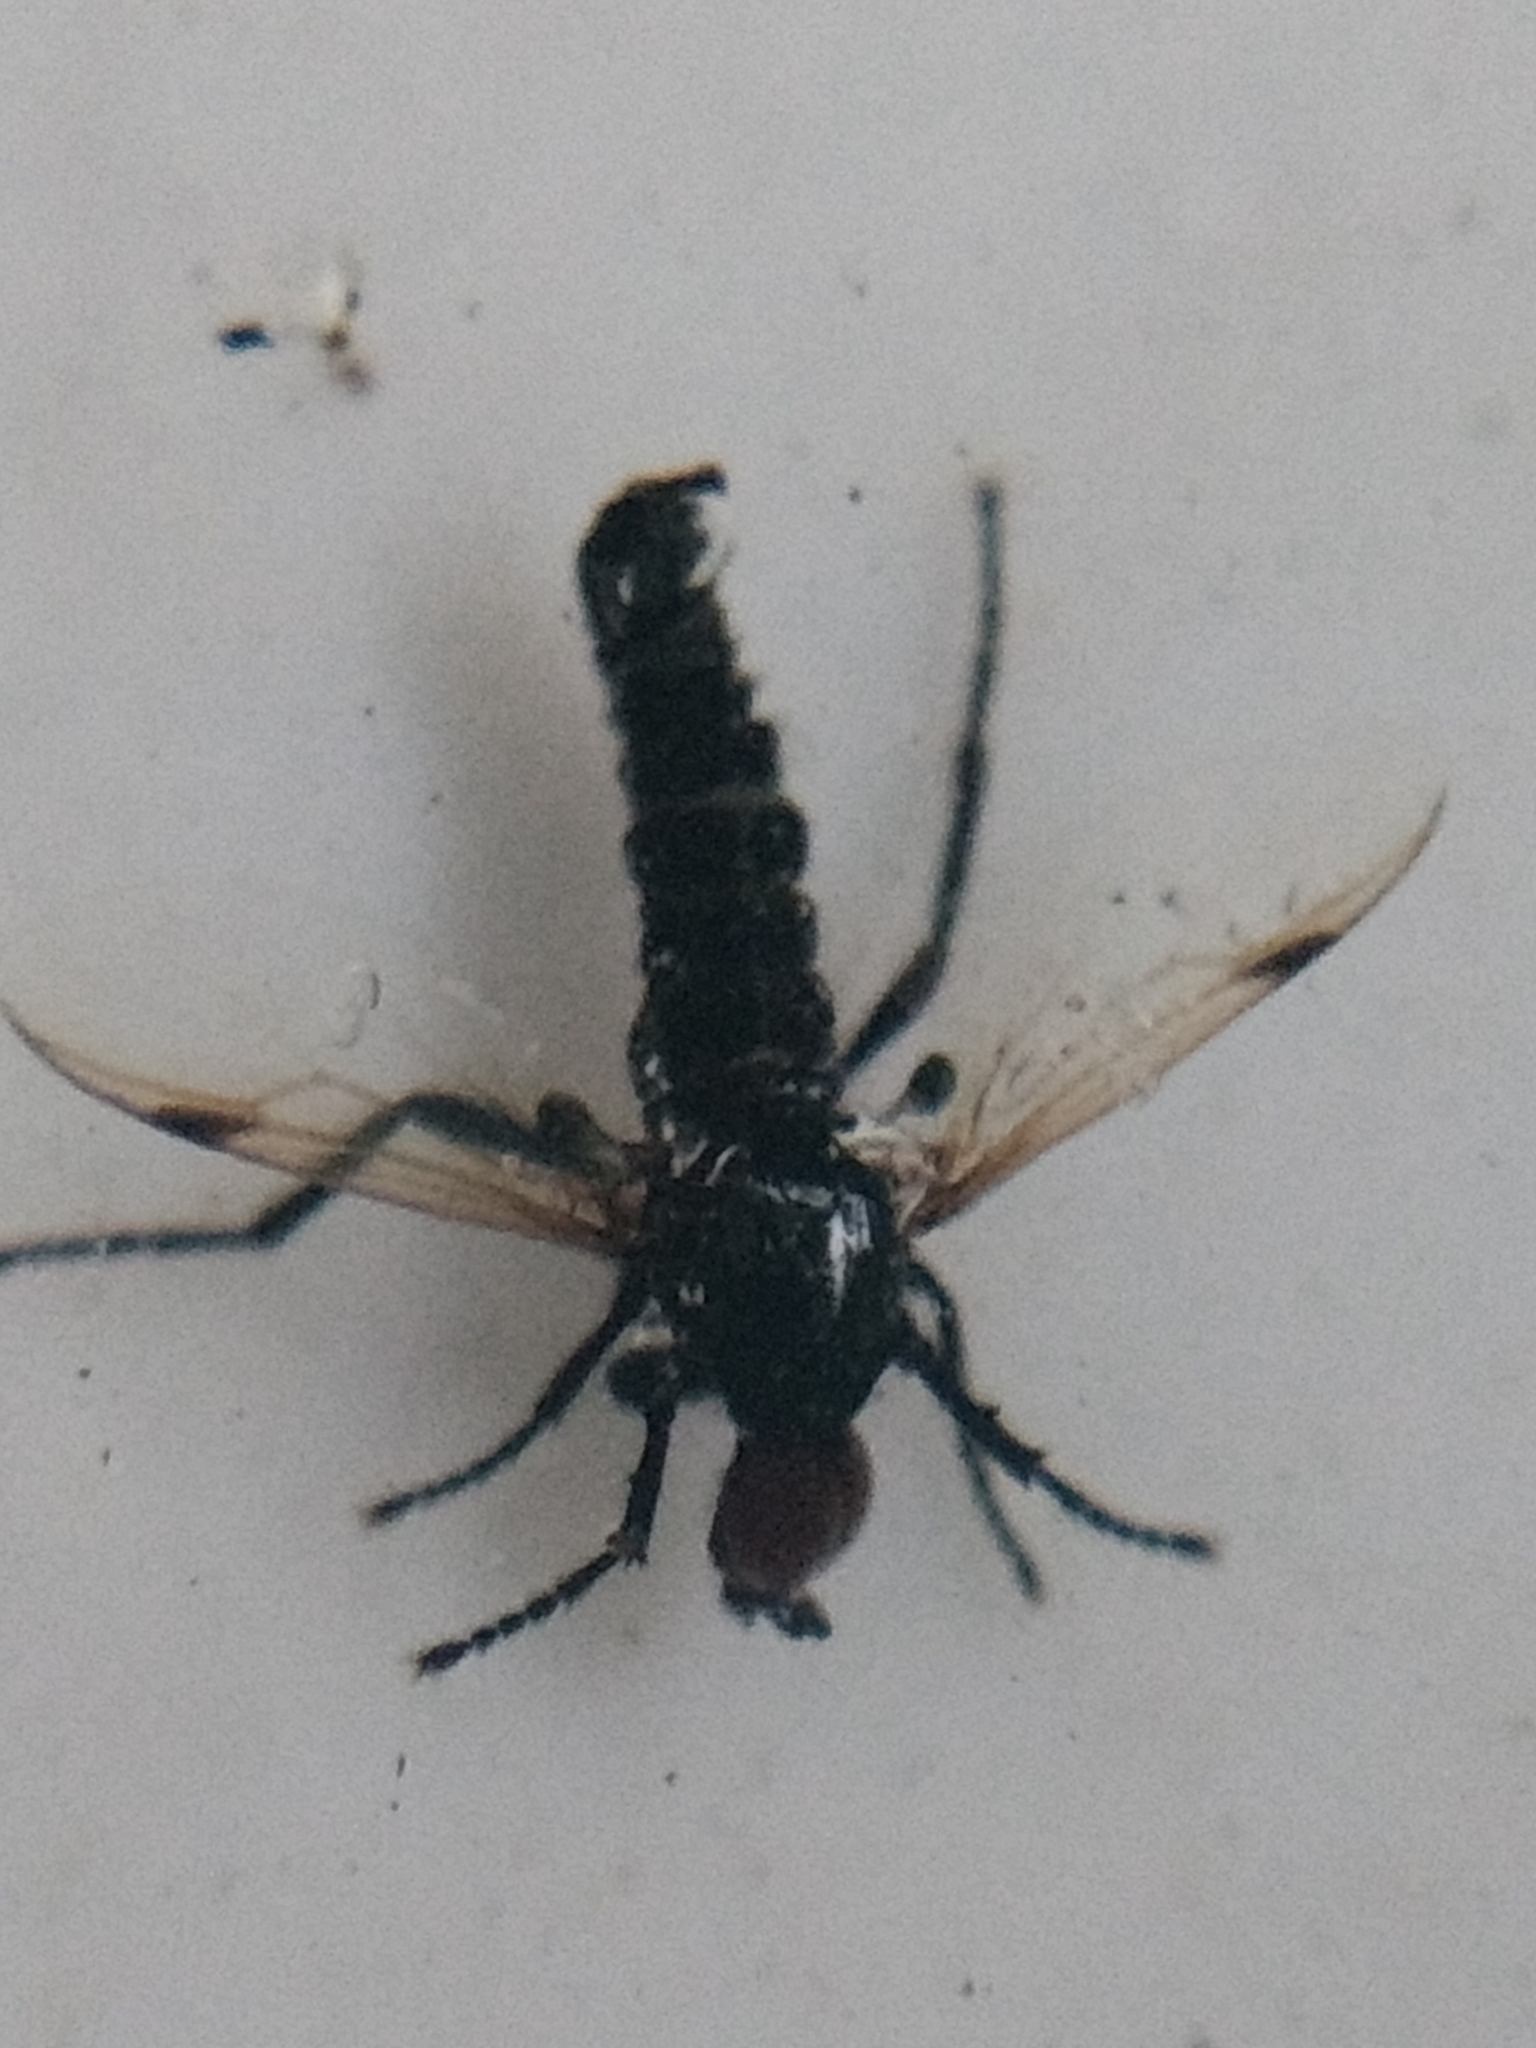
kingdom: Animalia
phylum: Arthropoda
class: Insecta
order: Diptera
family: Bibionidae
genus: Dilophus
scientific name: Dilophus orbatus
